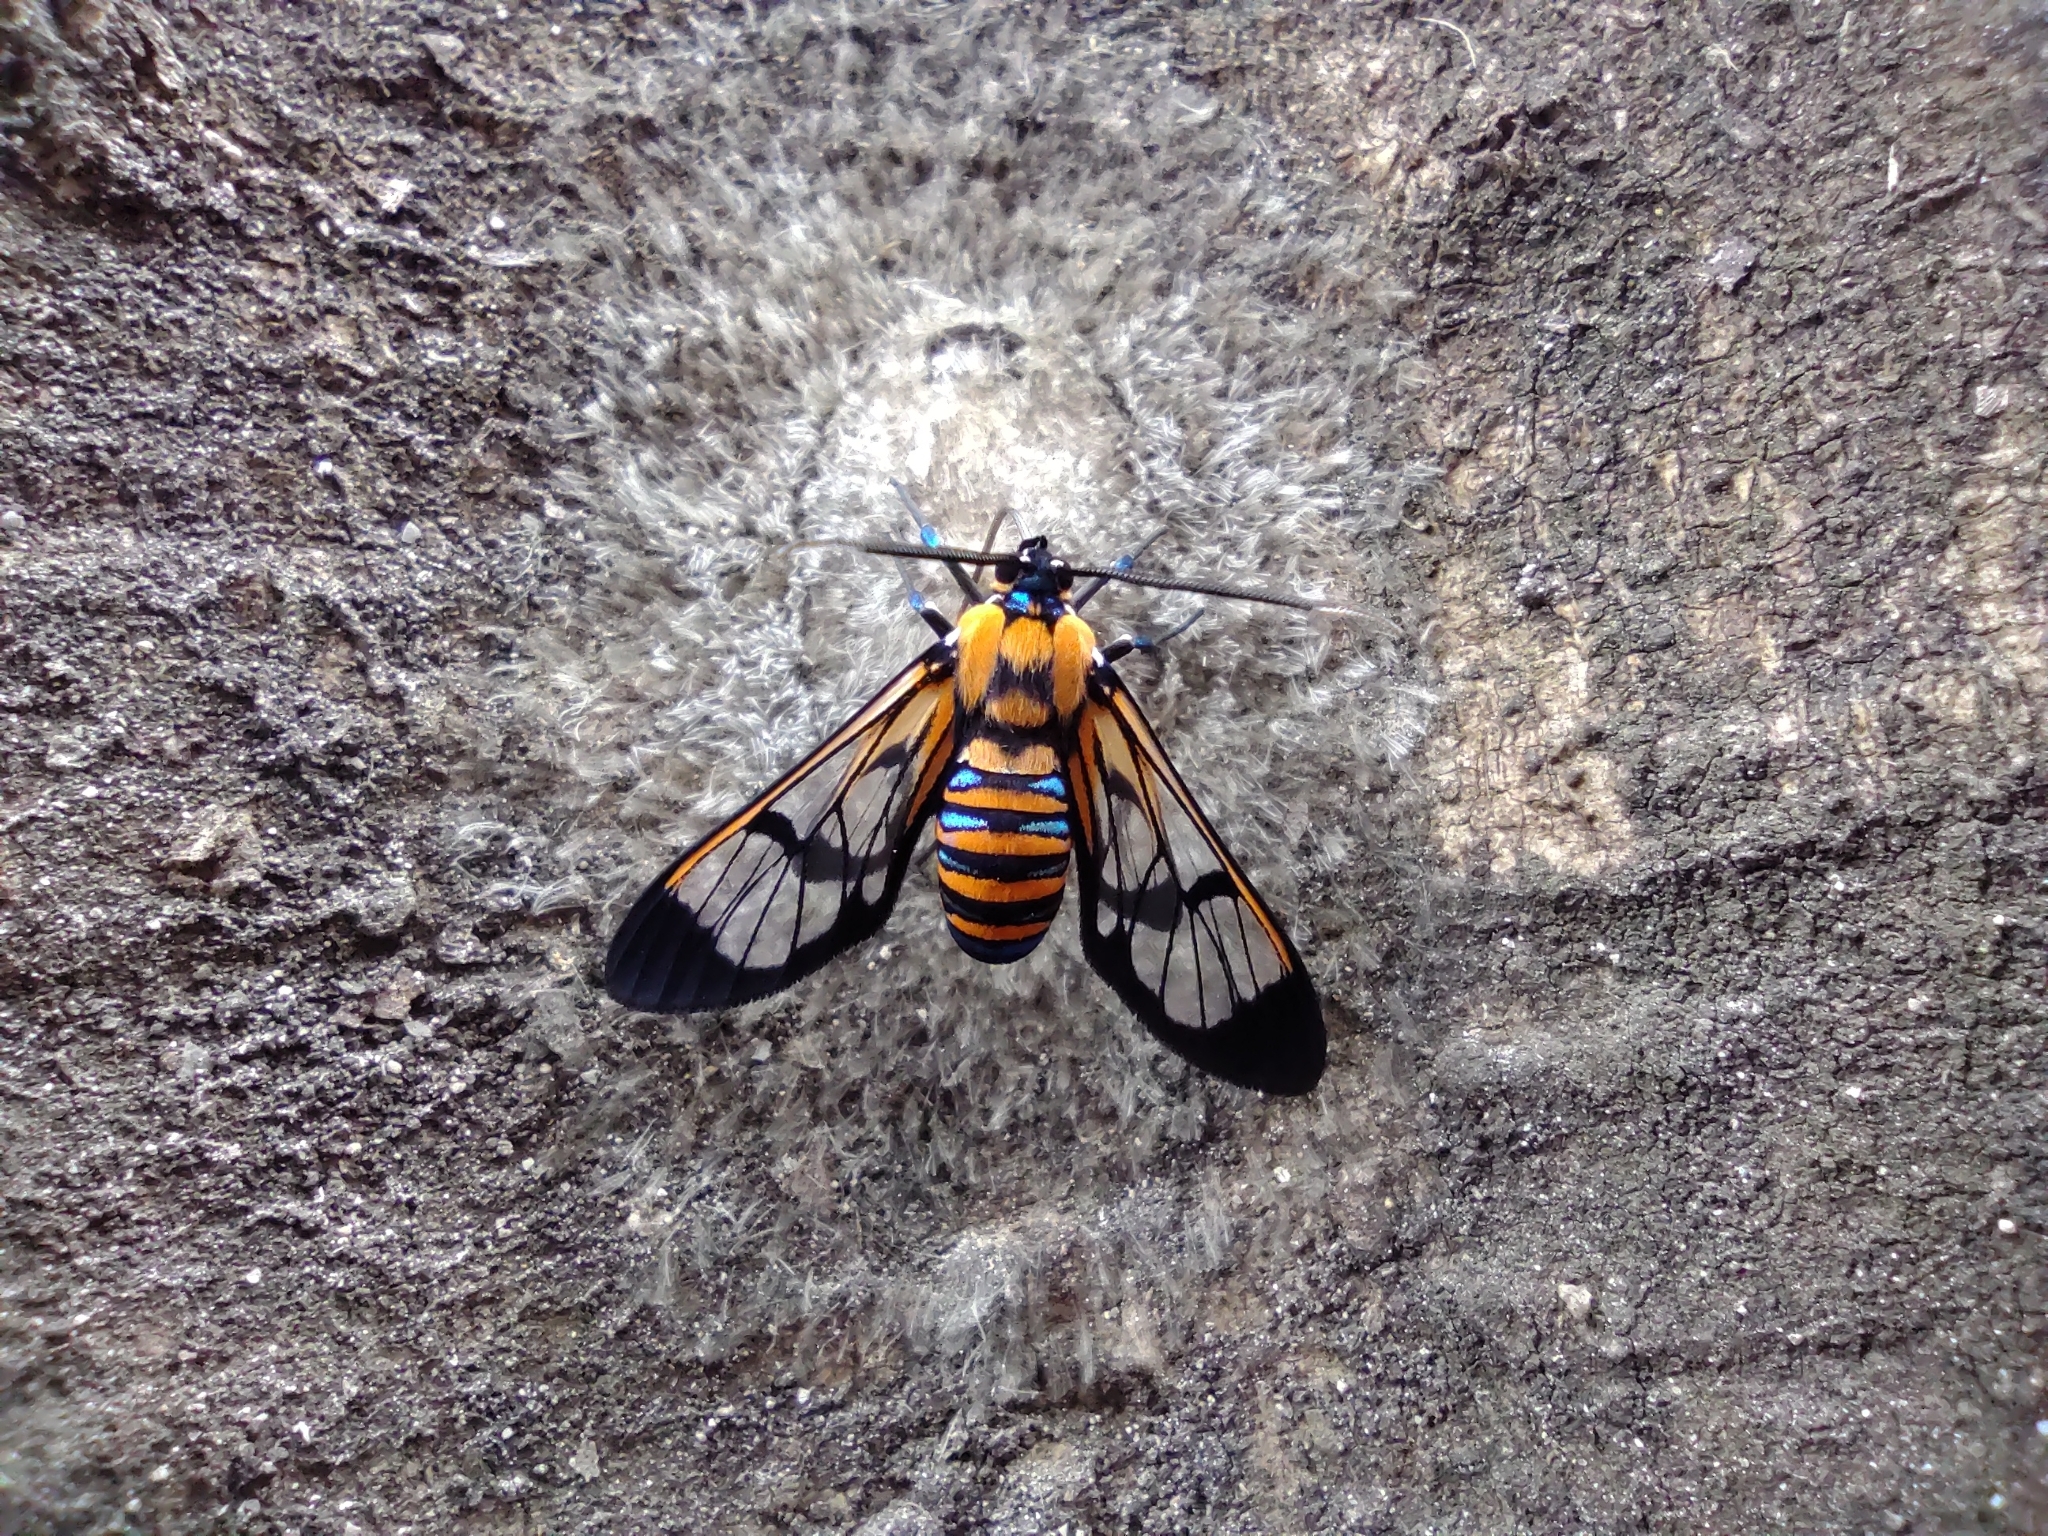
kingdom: Animalia
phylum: Arthropoda
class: Insecta
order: Lepidoptera
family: Erebidae
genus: Gymnelia
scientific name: Gymnelia ethodaea
